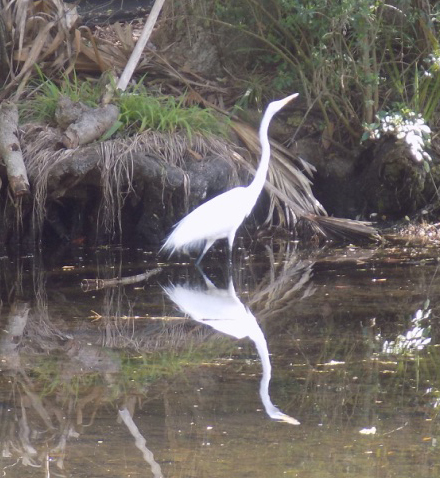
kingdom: Animalia
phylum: Chordata
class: Aves
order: Pelecaniformes
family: Ardeidae
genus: Ardea
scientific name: Ardea alba
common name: Great egret
